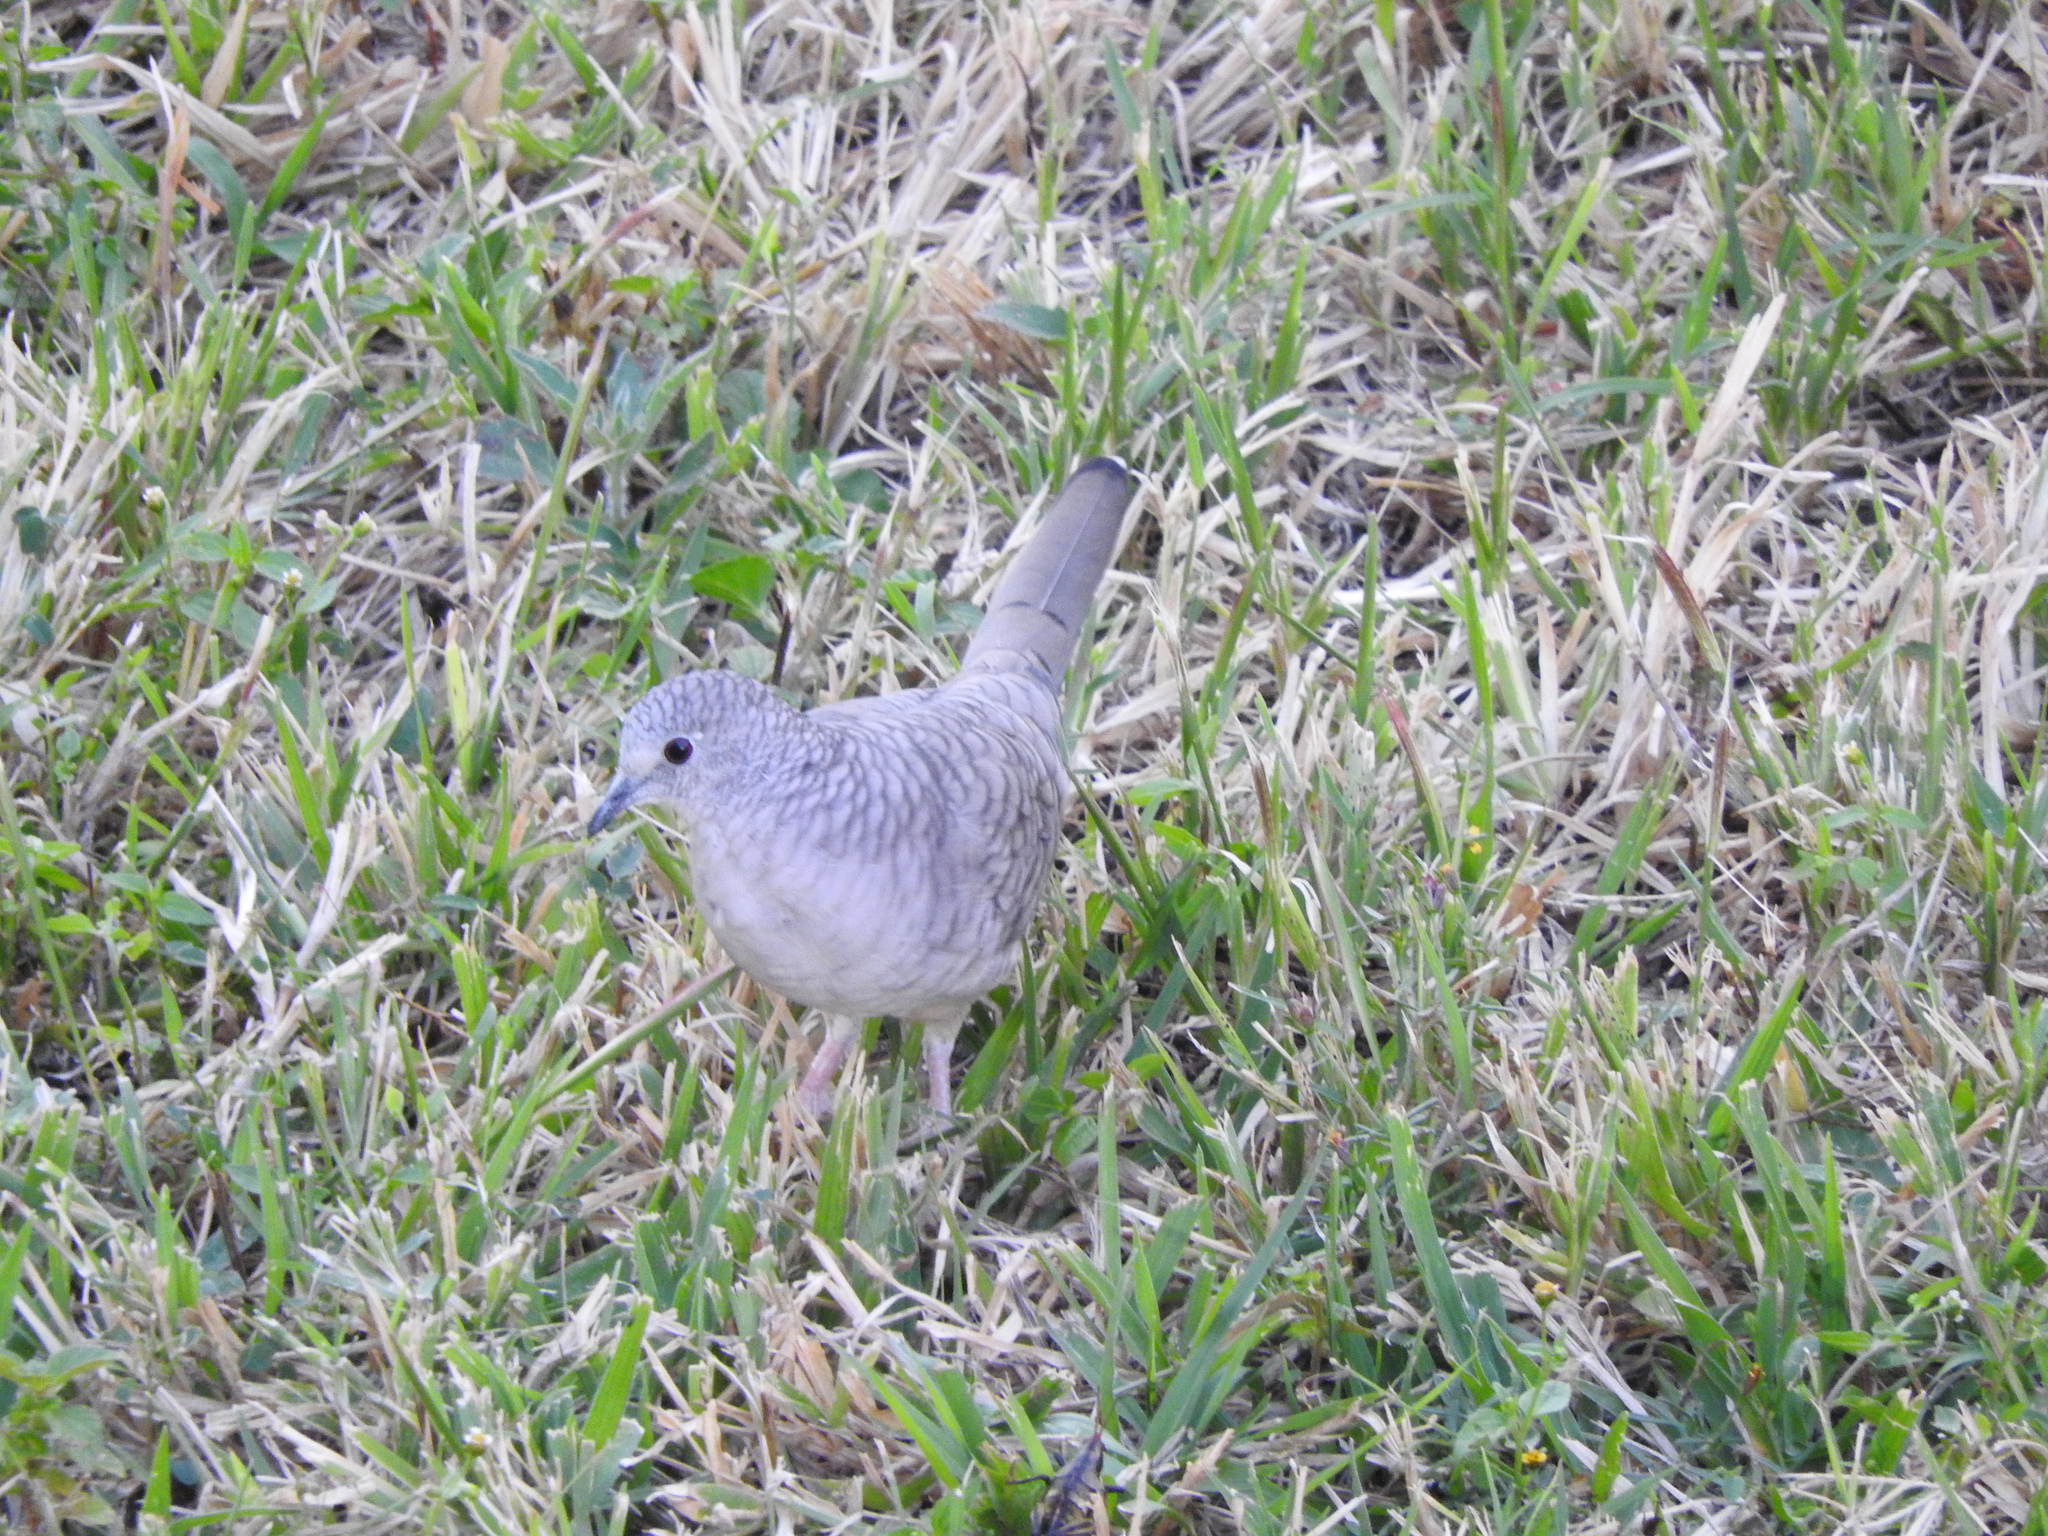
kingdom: Animalia
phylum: Chordata
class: Aves
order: Columbiformes
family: Columbidae
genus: Columbina
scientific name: Columbina inca
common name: Inca dove
